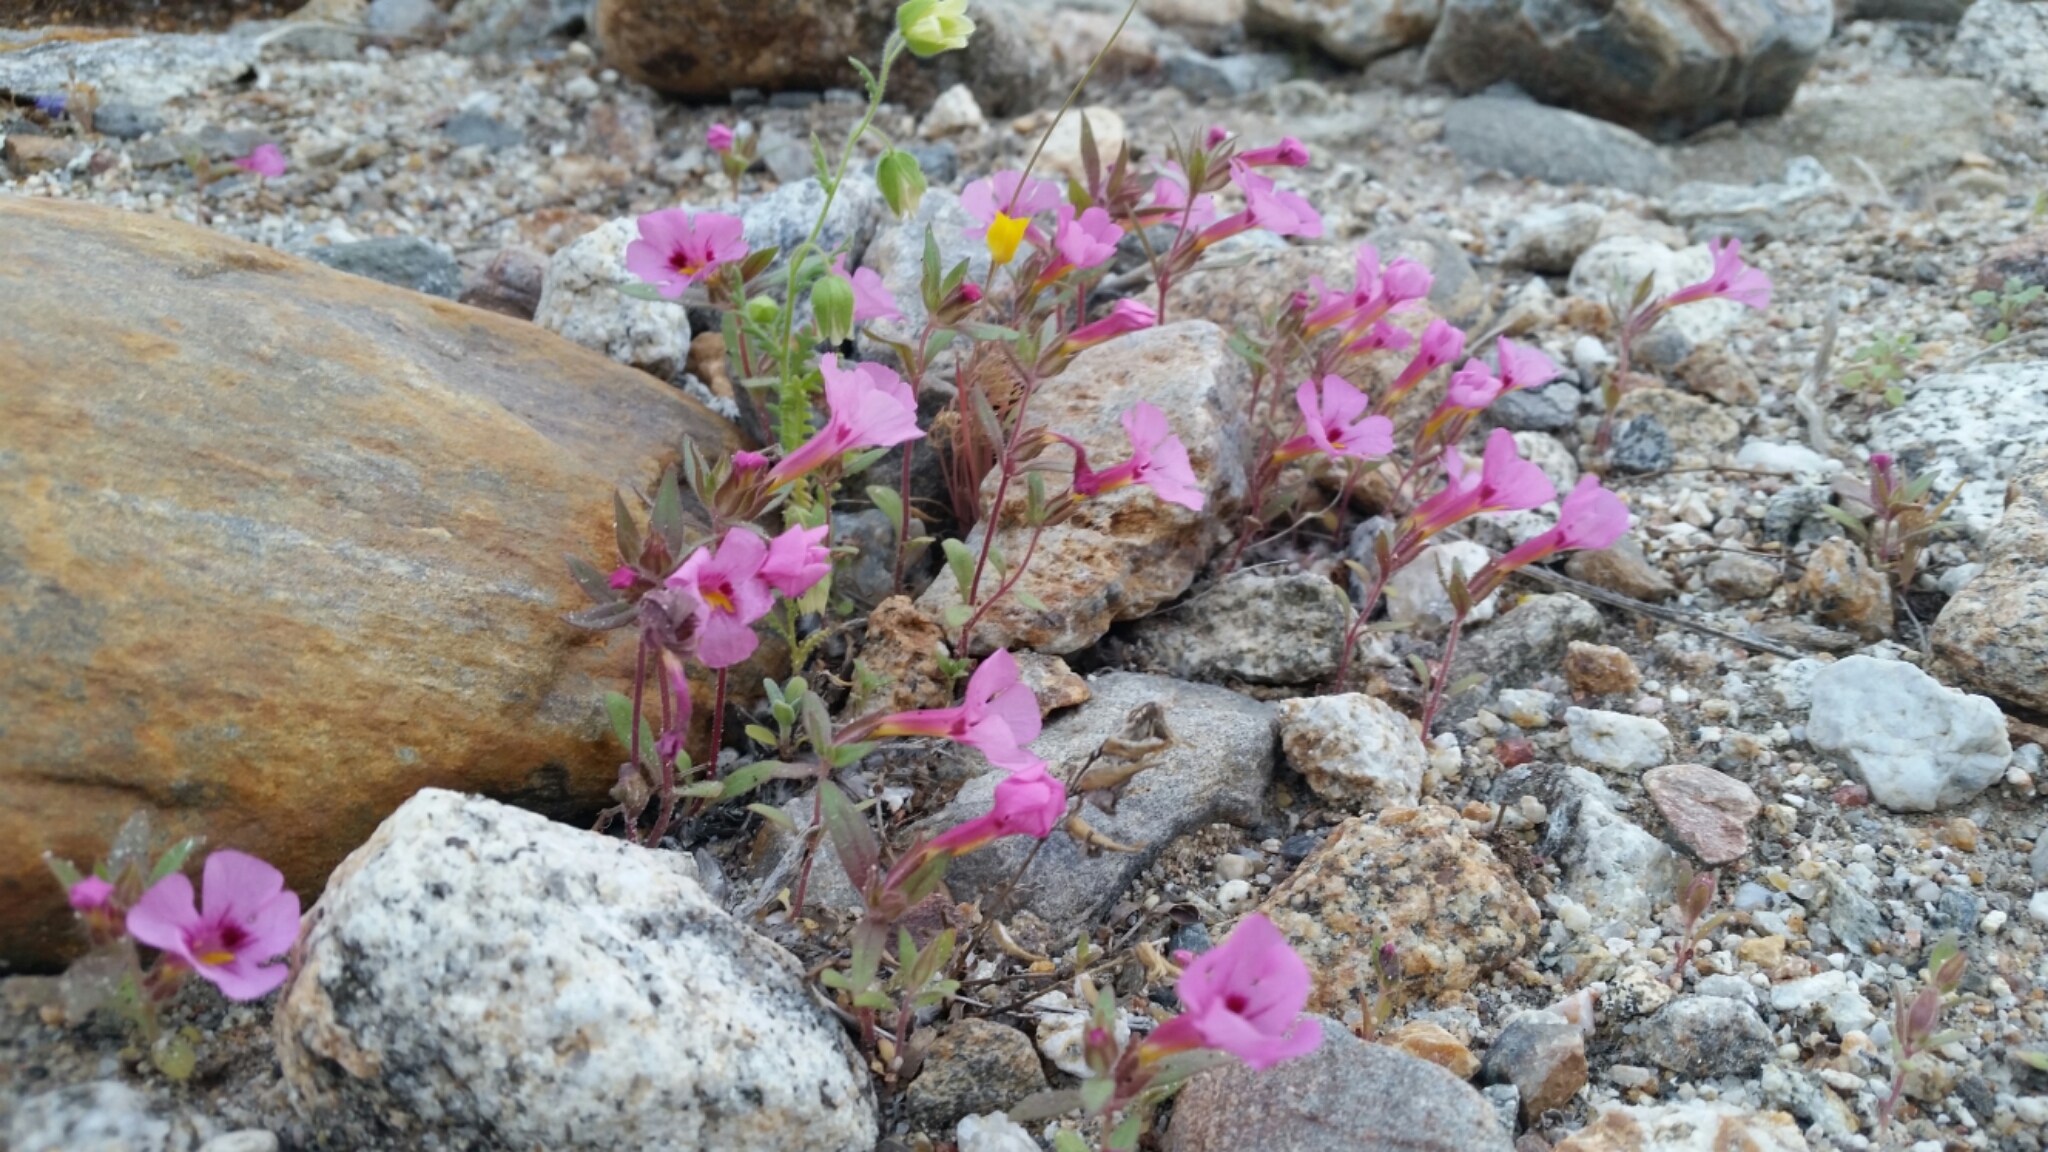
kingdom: Plantae
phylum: Tracheophyta
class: Magnoliopsida
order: Lamiales
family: Phrymaceae
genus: Diplacus
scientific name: Diplacus bigelovii
